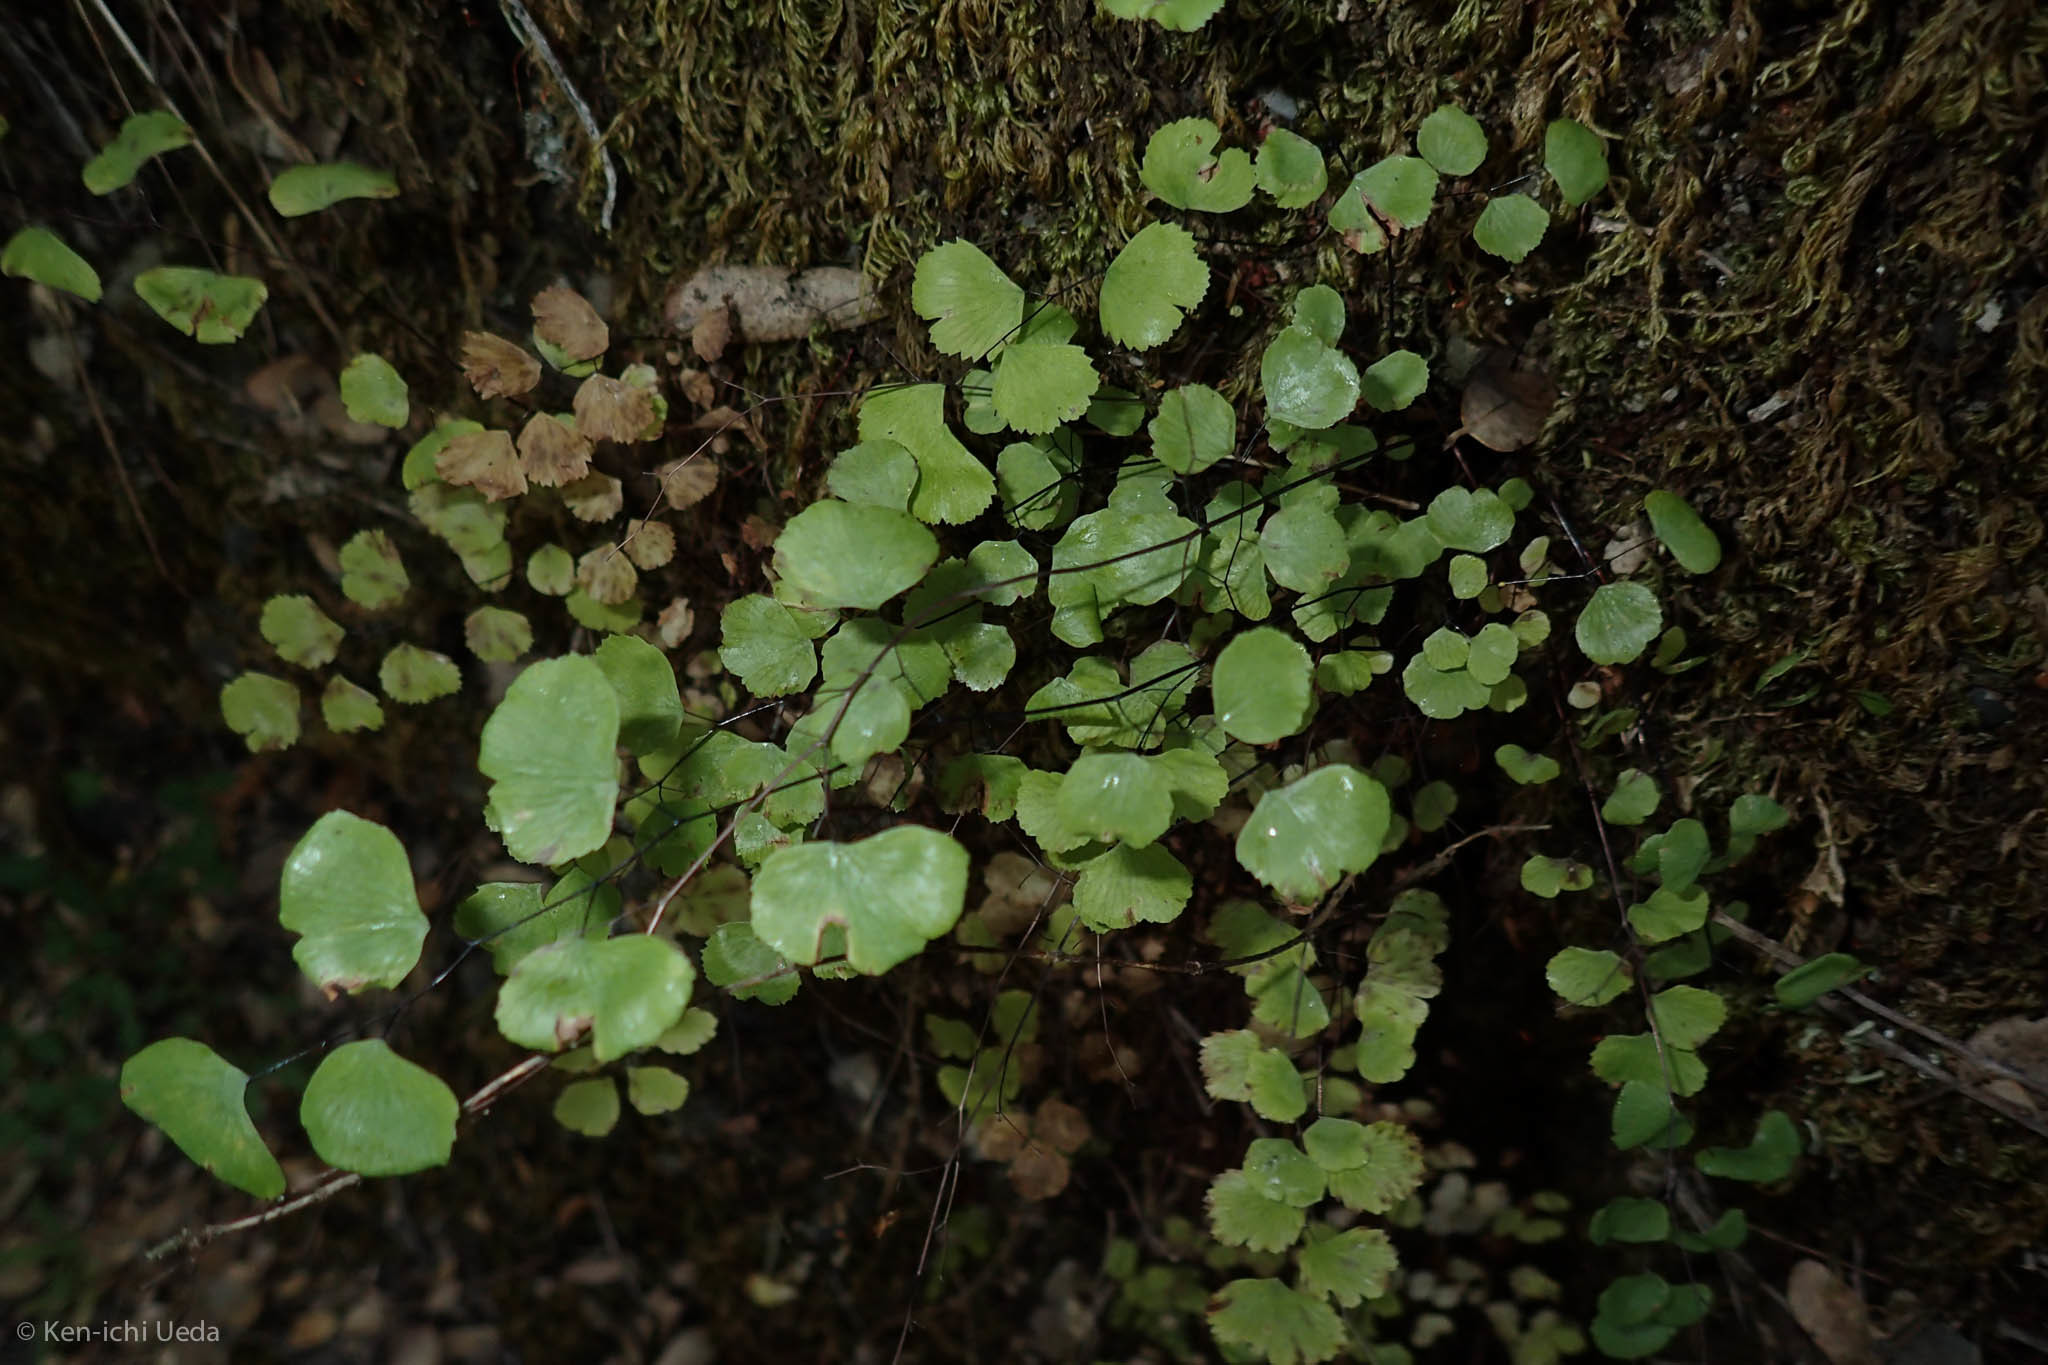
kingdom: Plantae
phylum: Tracheophyta
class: Polypodiopsida
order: Polypodiales
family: Pteridaceae
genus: Adiantum
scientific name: Adiantum jordanii
